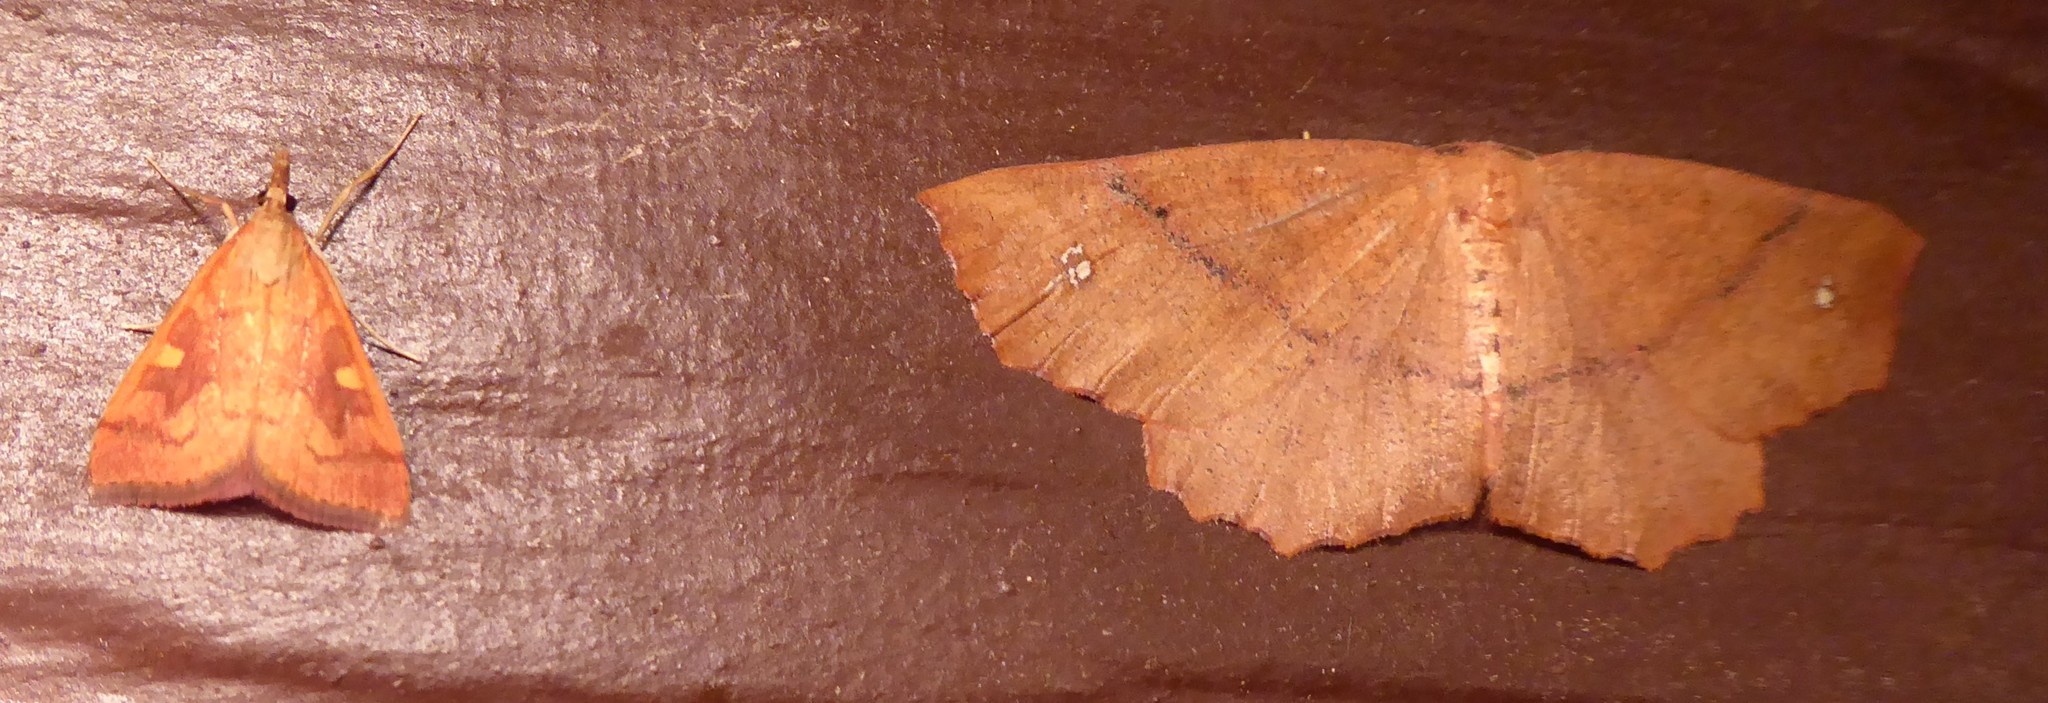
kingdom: Animalia
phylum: Arthropoda
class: Insecta
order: Lepidoptera
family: Crambidae
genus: Udea
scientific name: Udea Mnesictena flavidalis
